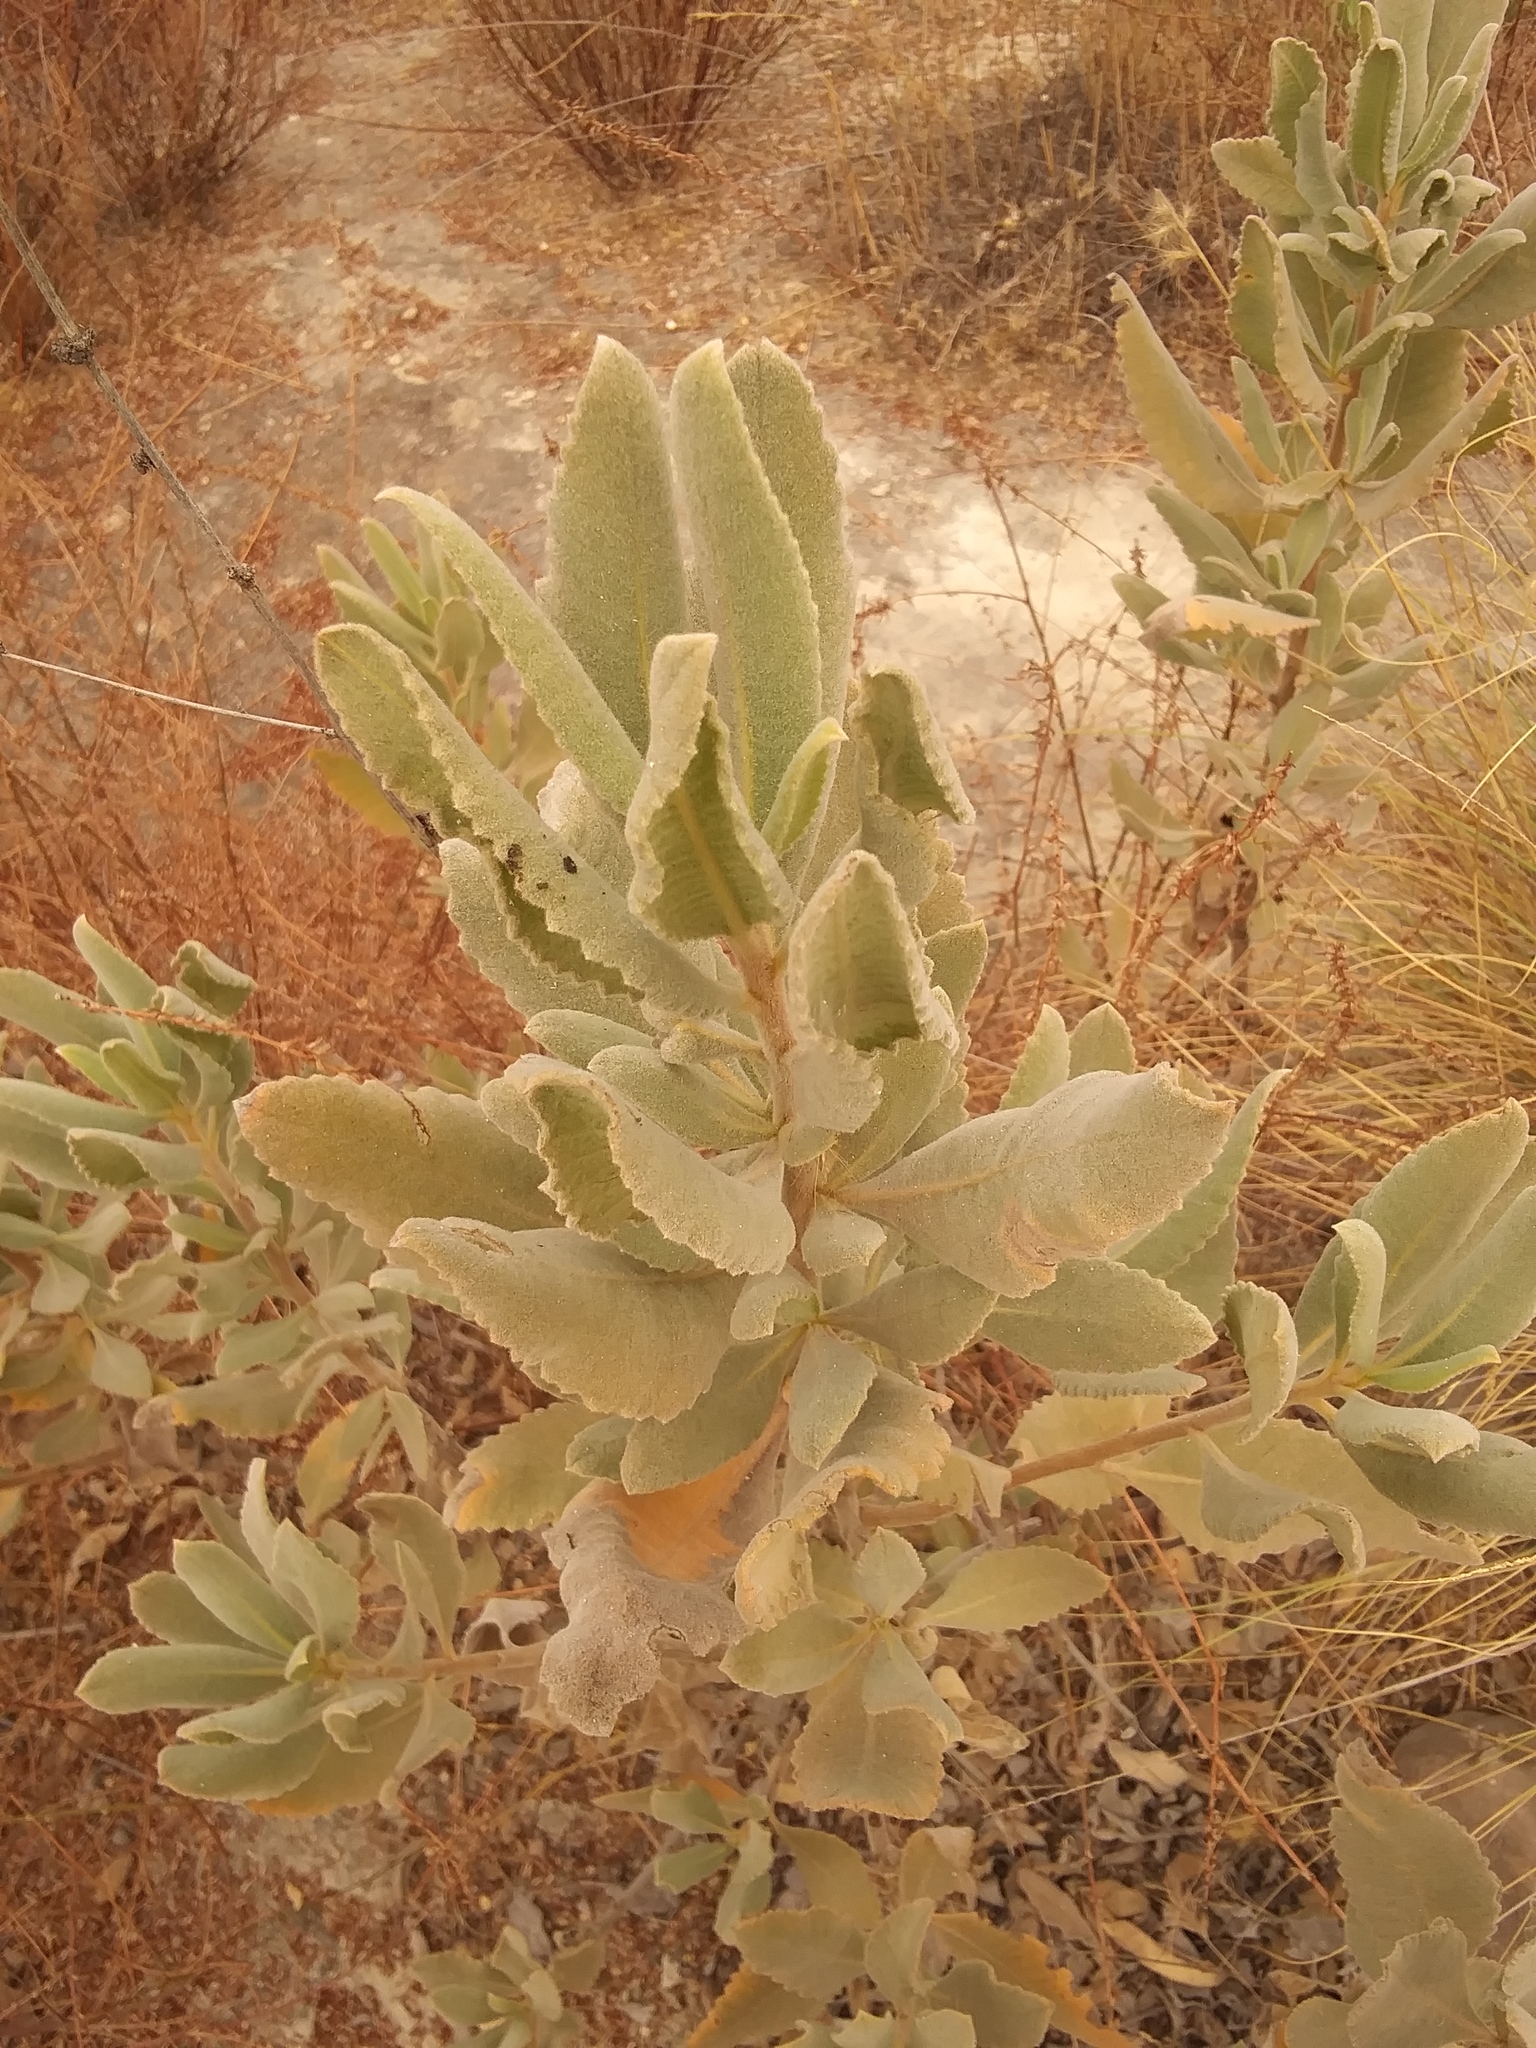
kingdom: Plantae
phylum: Tracheophyta
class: Magnoliopsida
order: Boraginales
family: Namaceae
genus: Eriodictyon
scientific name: Eriodictyon crassifolium
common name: Thick-leaf yerba-santa
